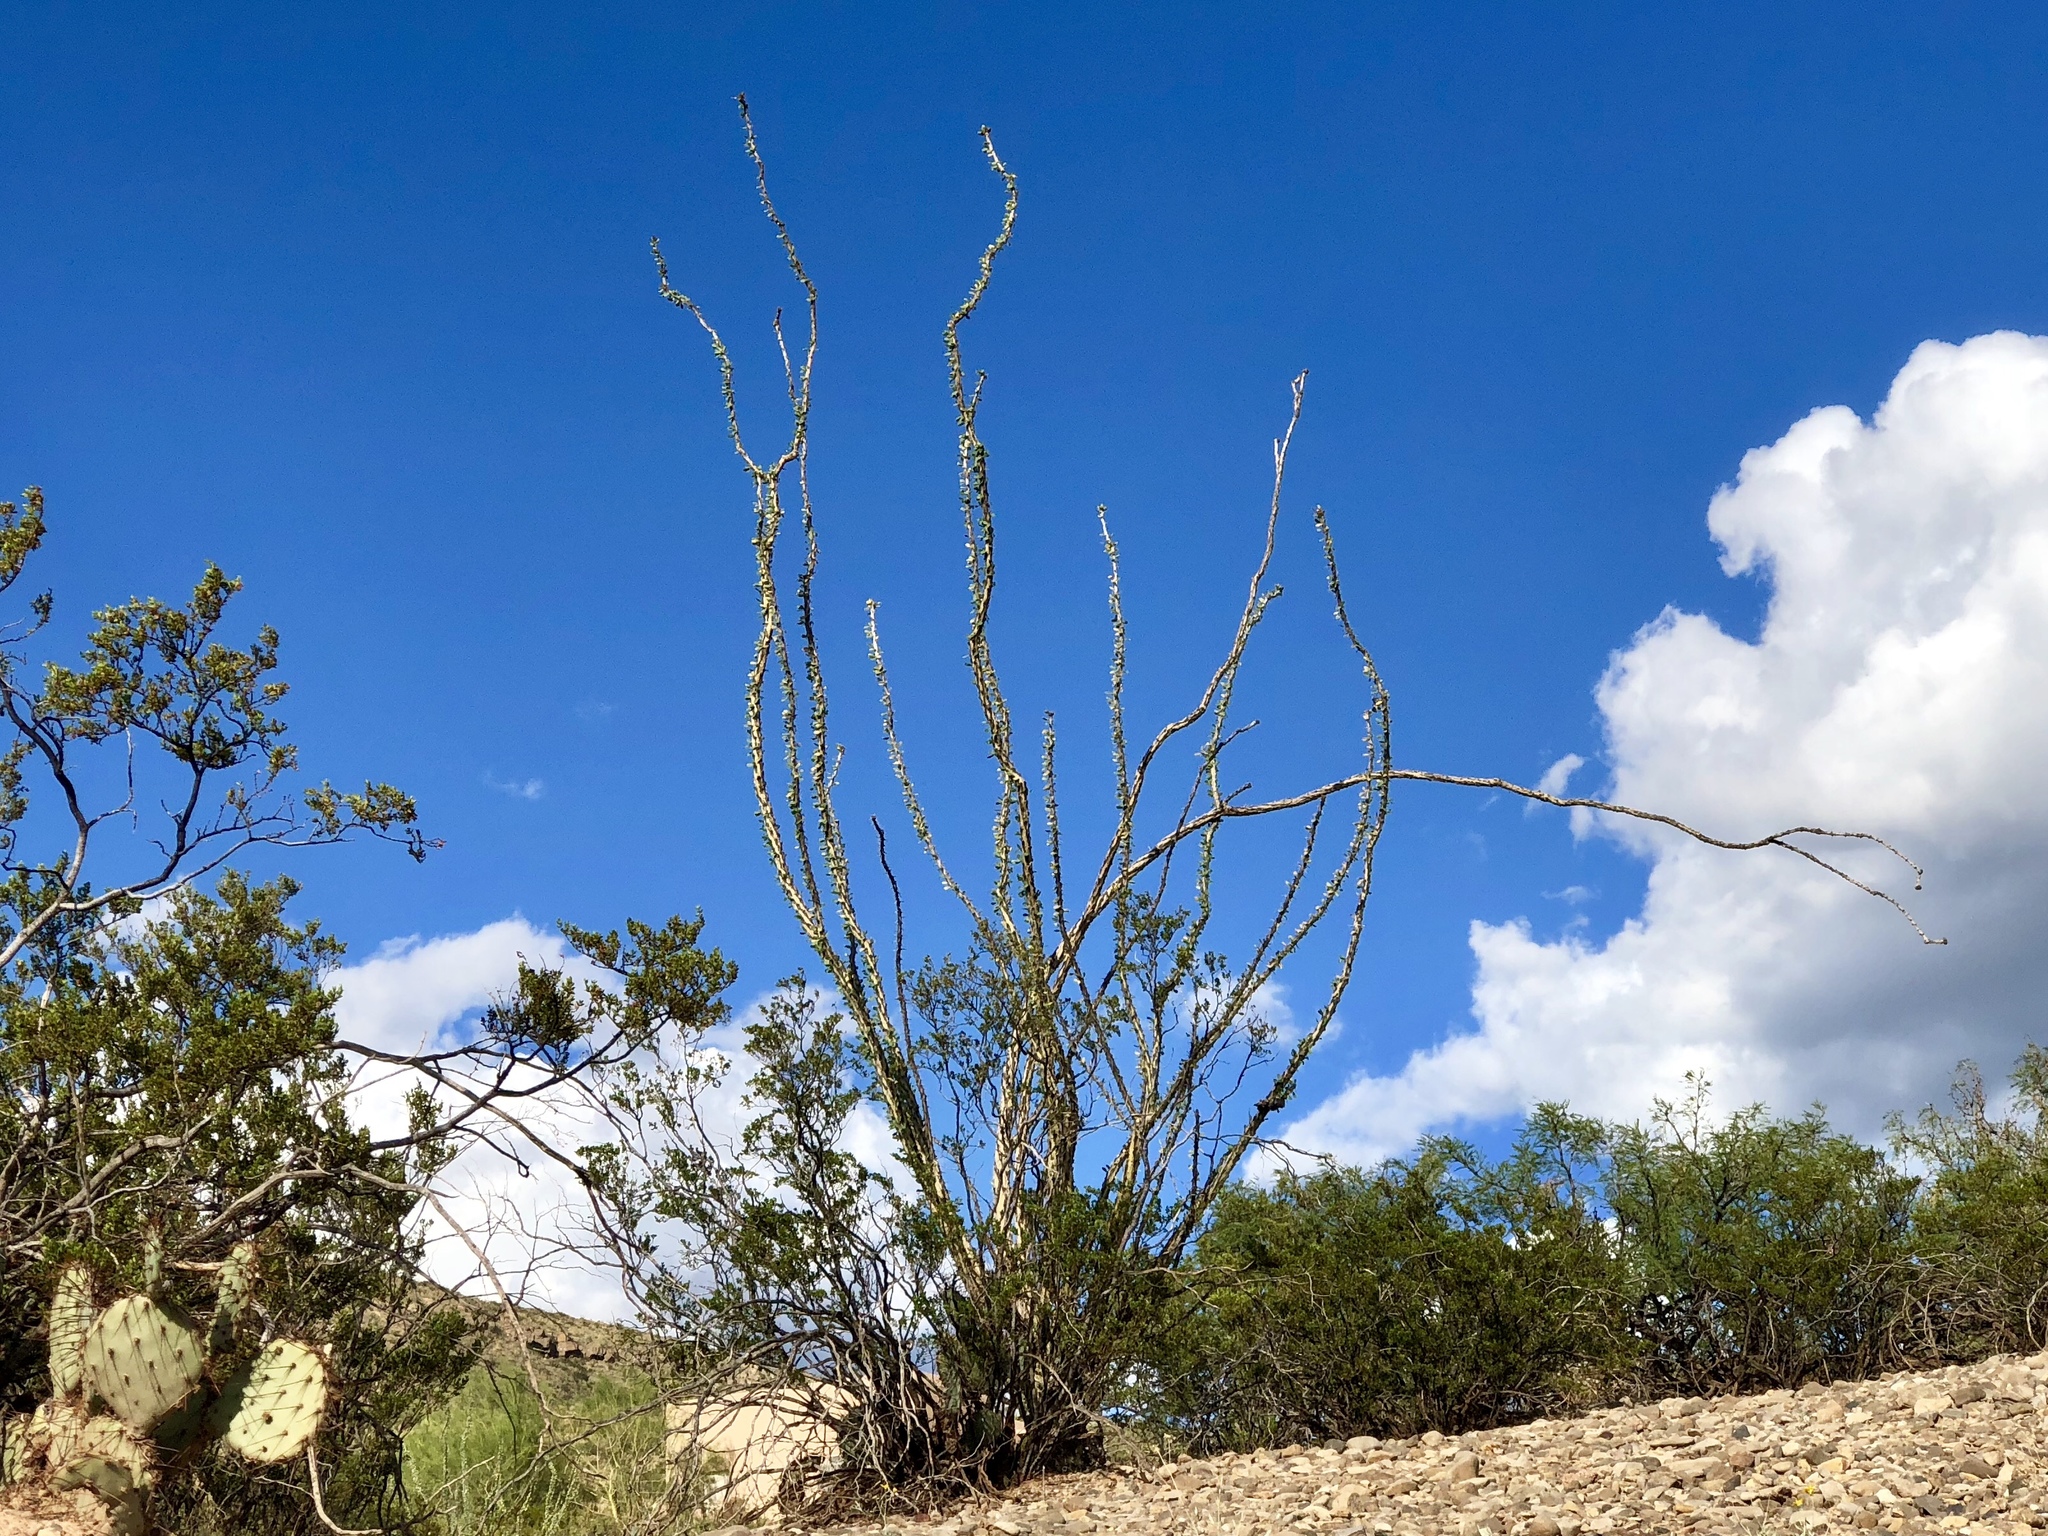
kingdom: Plantae
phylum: Tracheophyta
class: Magnoliopsida
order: Ericales
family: Fouquieriaceae
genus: Fouquieria
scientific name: Fouquieria splendens
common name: Vine-cactus
